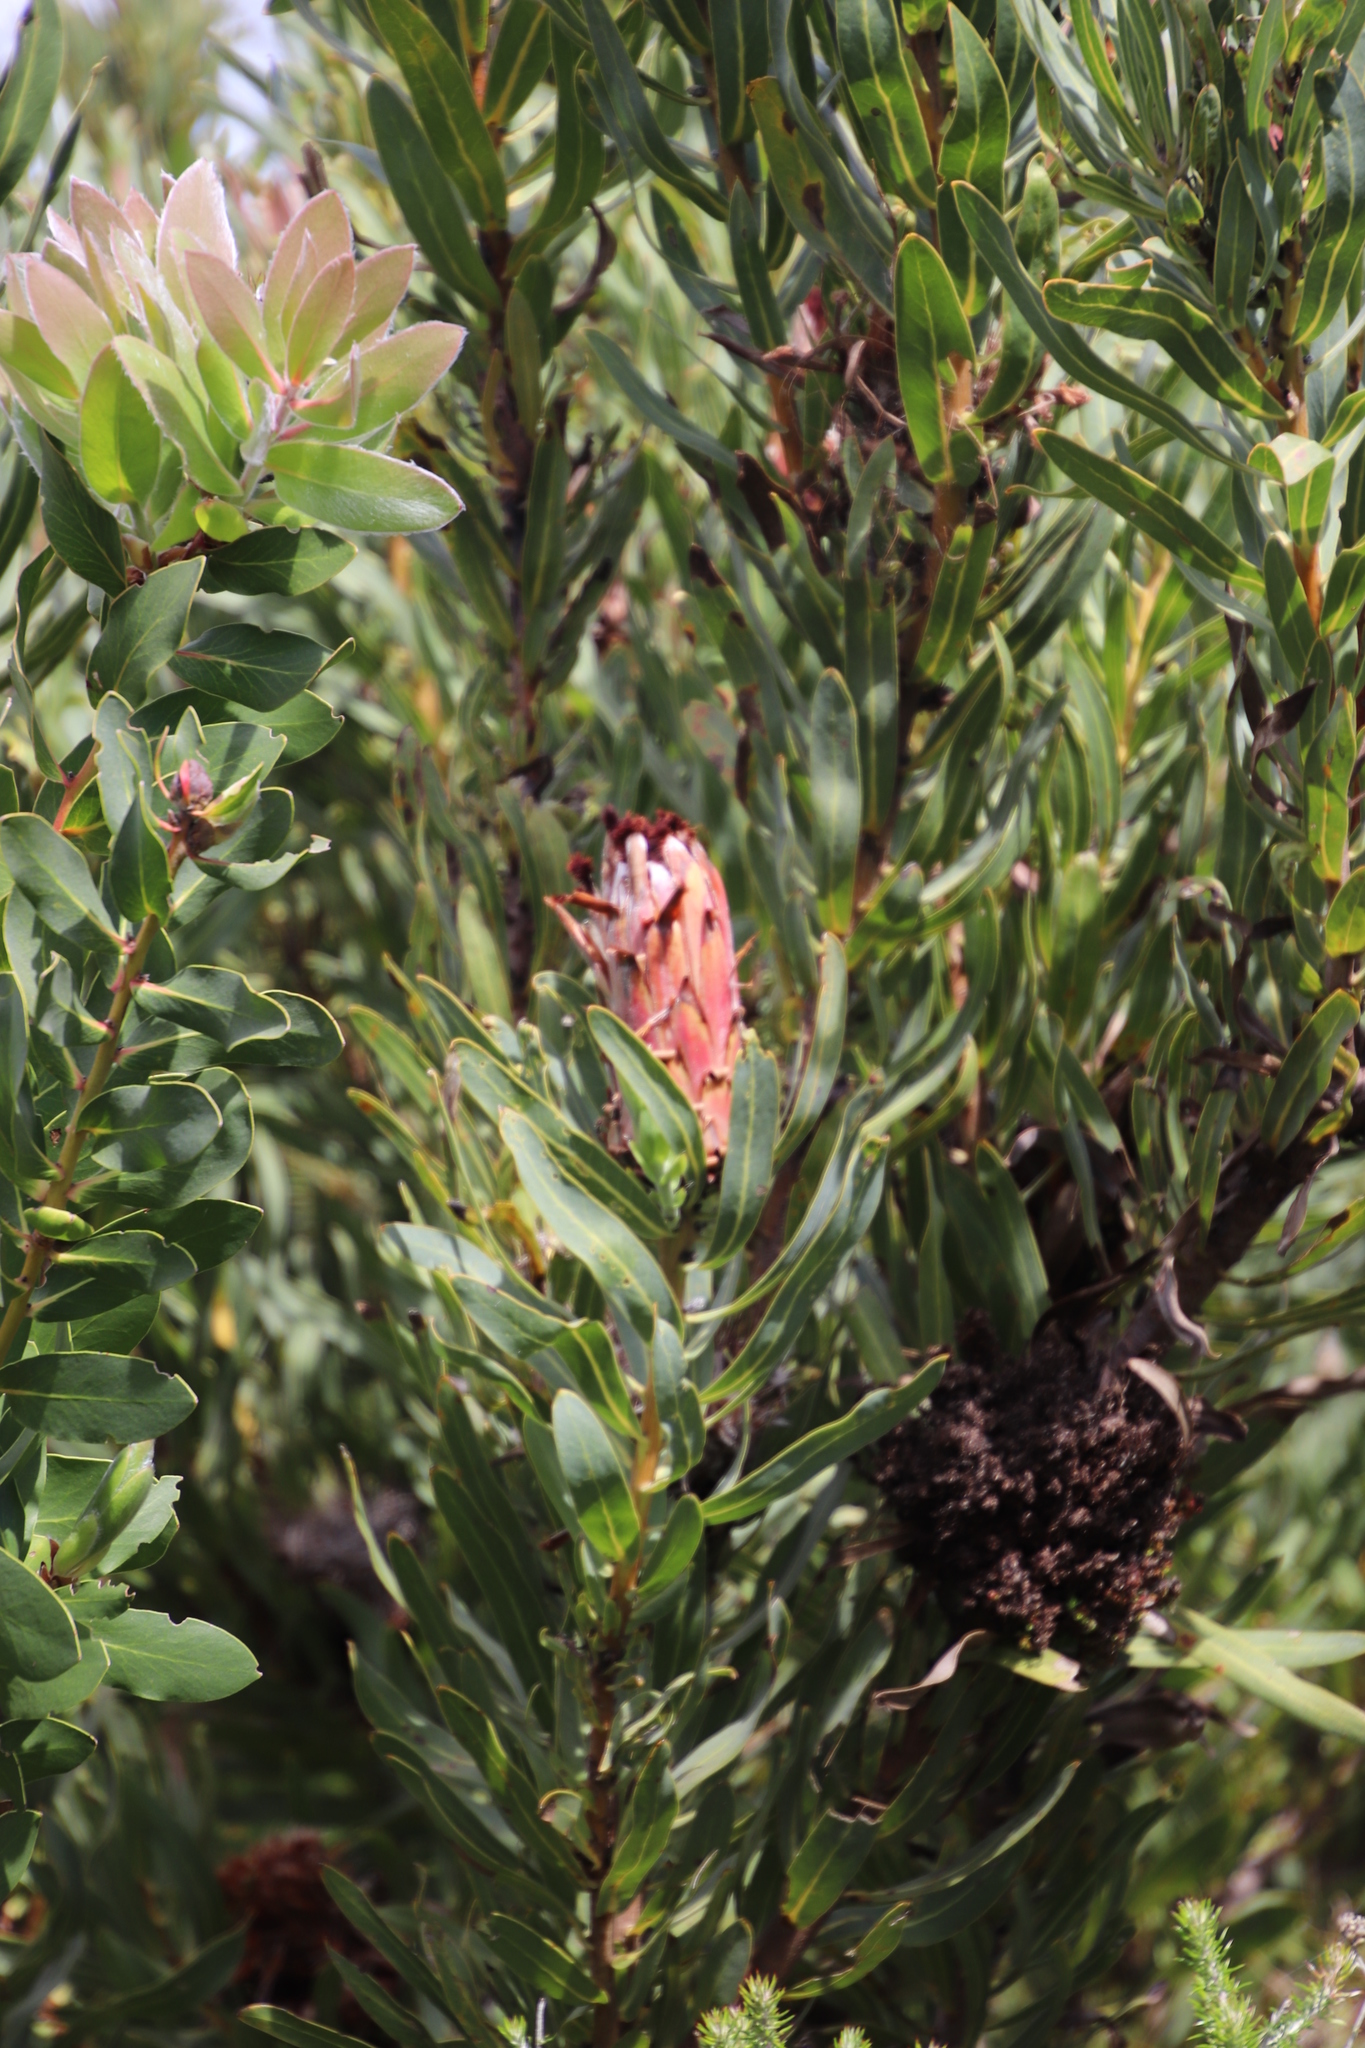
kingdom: Plantae
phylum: Tracheophyta
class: Magnoliopsida
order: Proteales
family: Proteaceae
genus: Protea
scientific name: Protea
